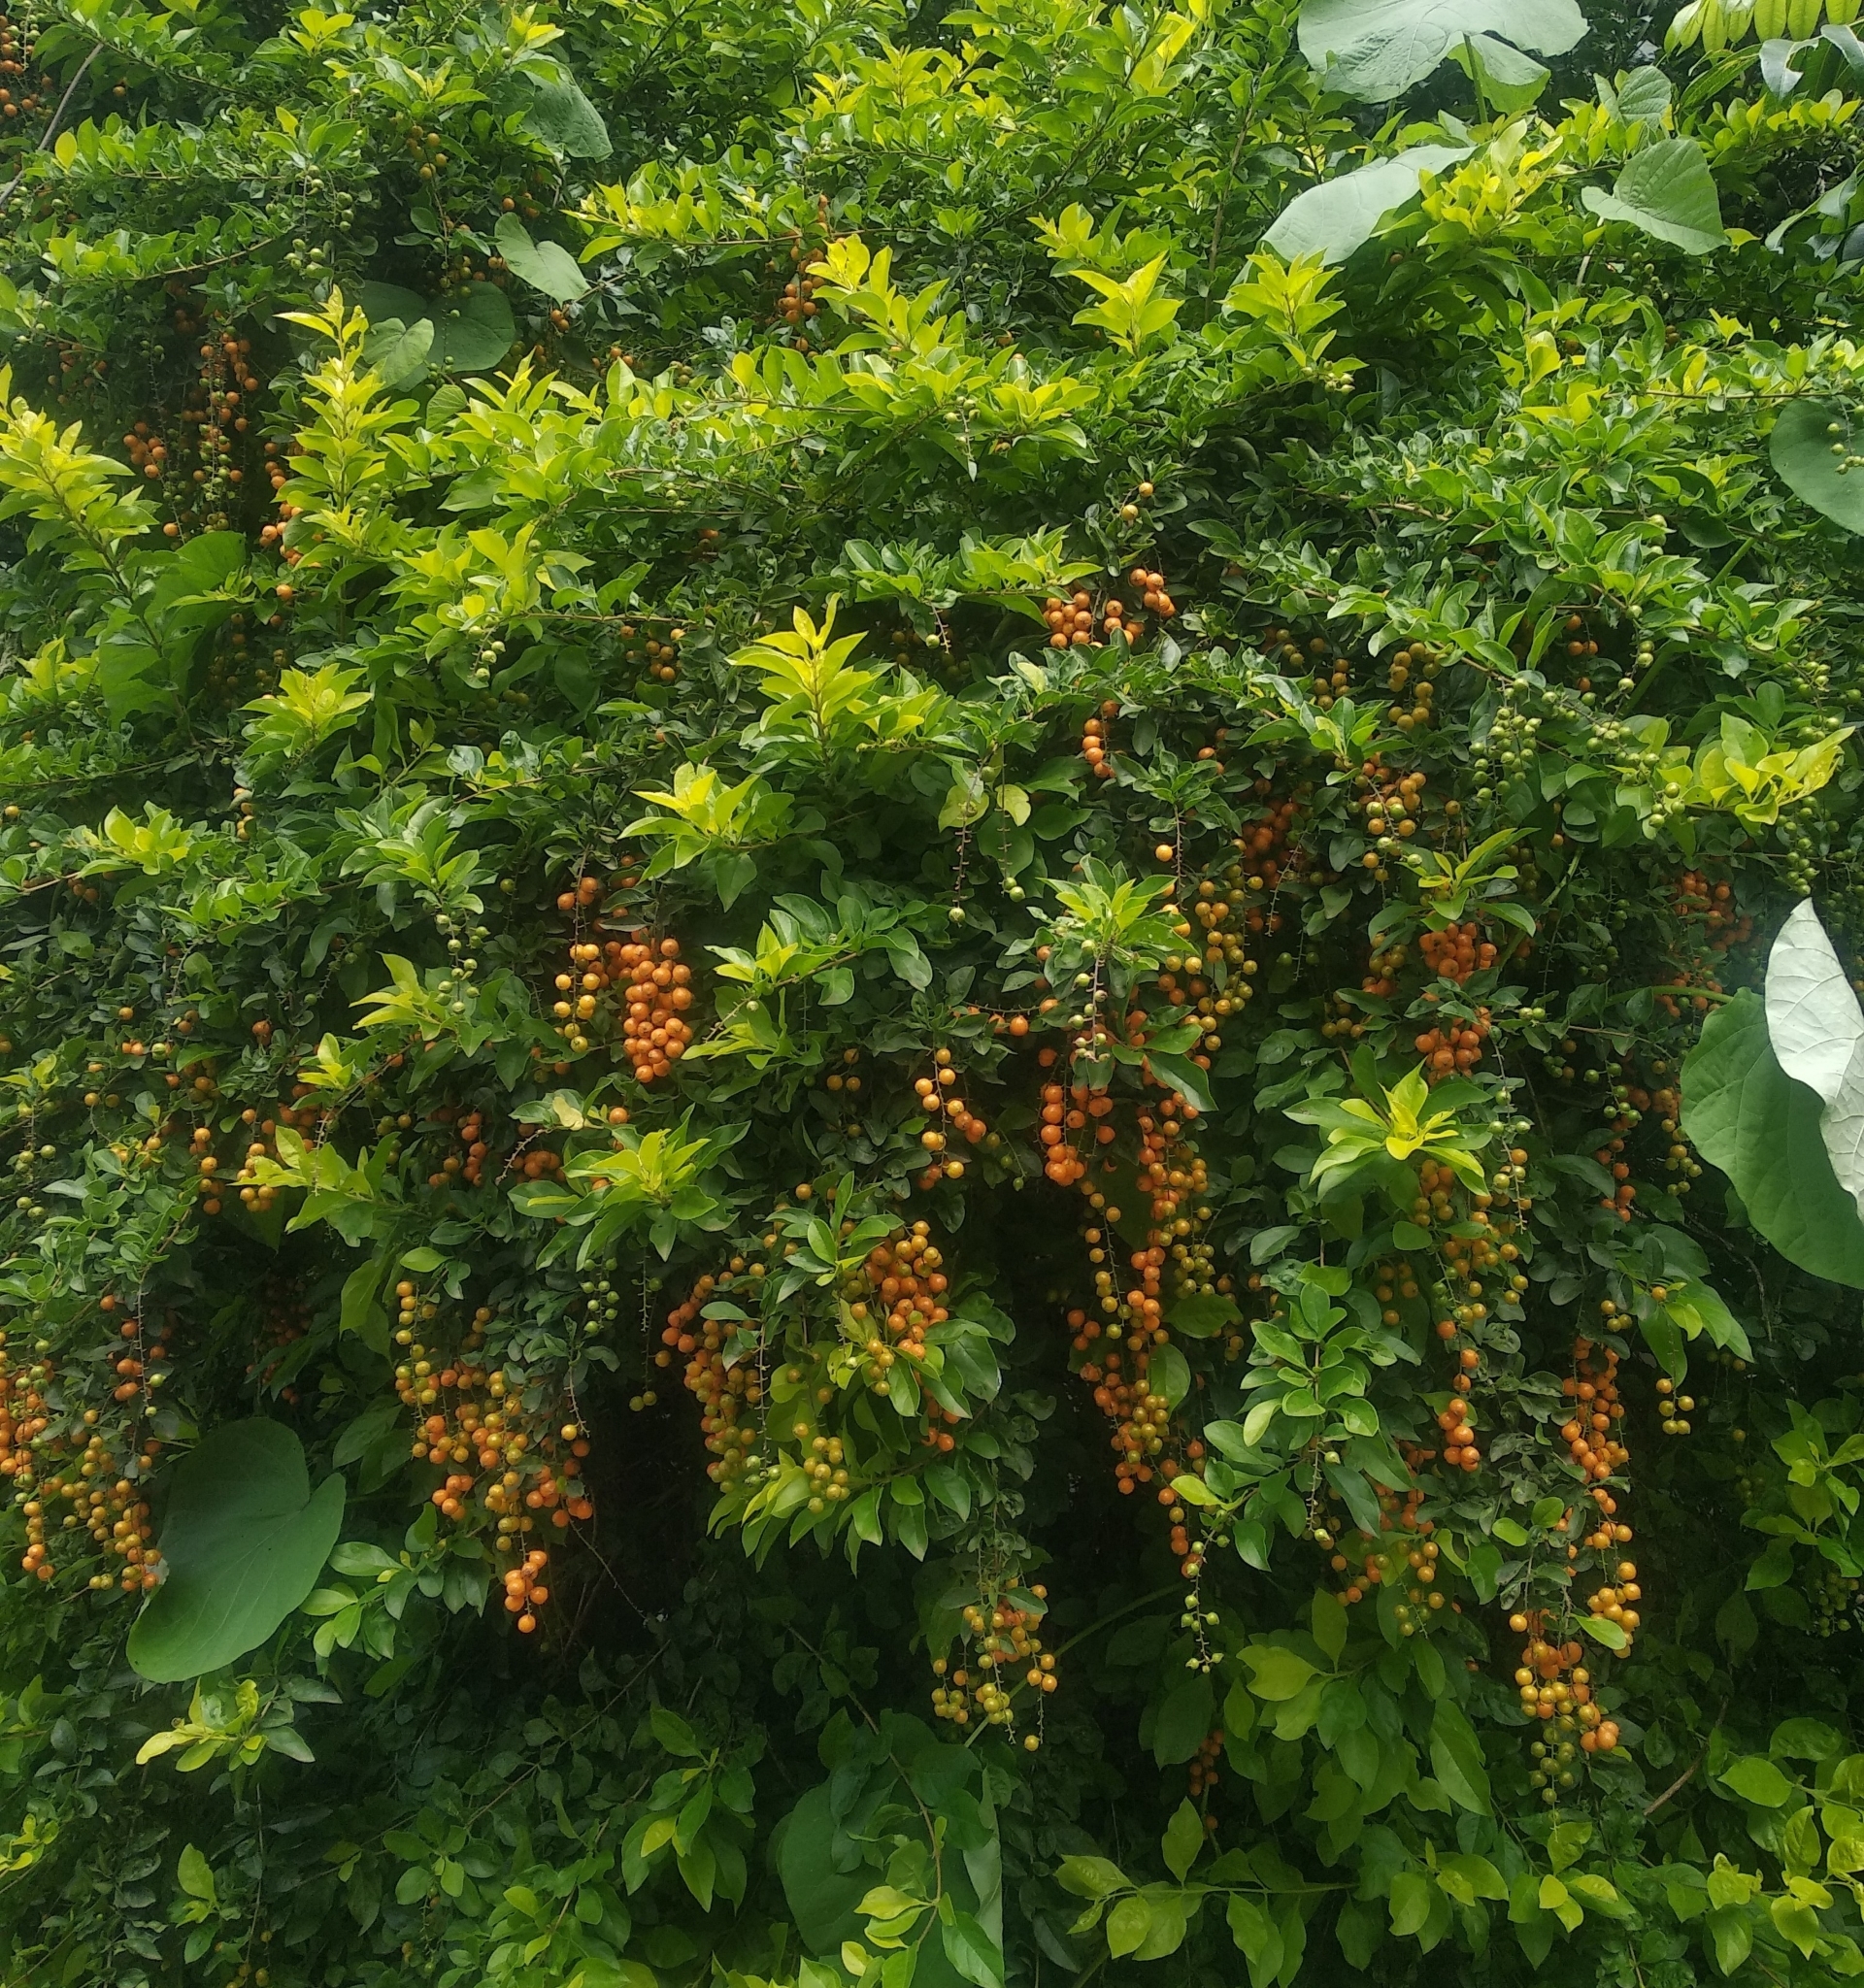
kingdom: Plantae
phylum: Tracheophyta
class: Magnoliopsida
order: Lamiales
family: Verbenaceae
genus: Duranta
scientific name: Duranta erecta
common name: Golden dewdrops
